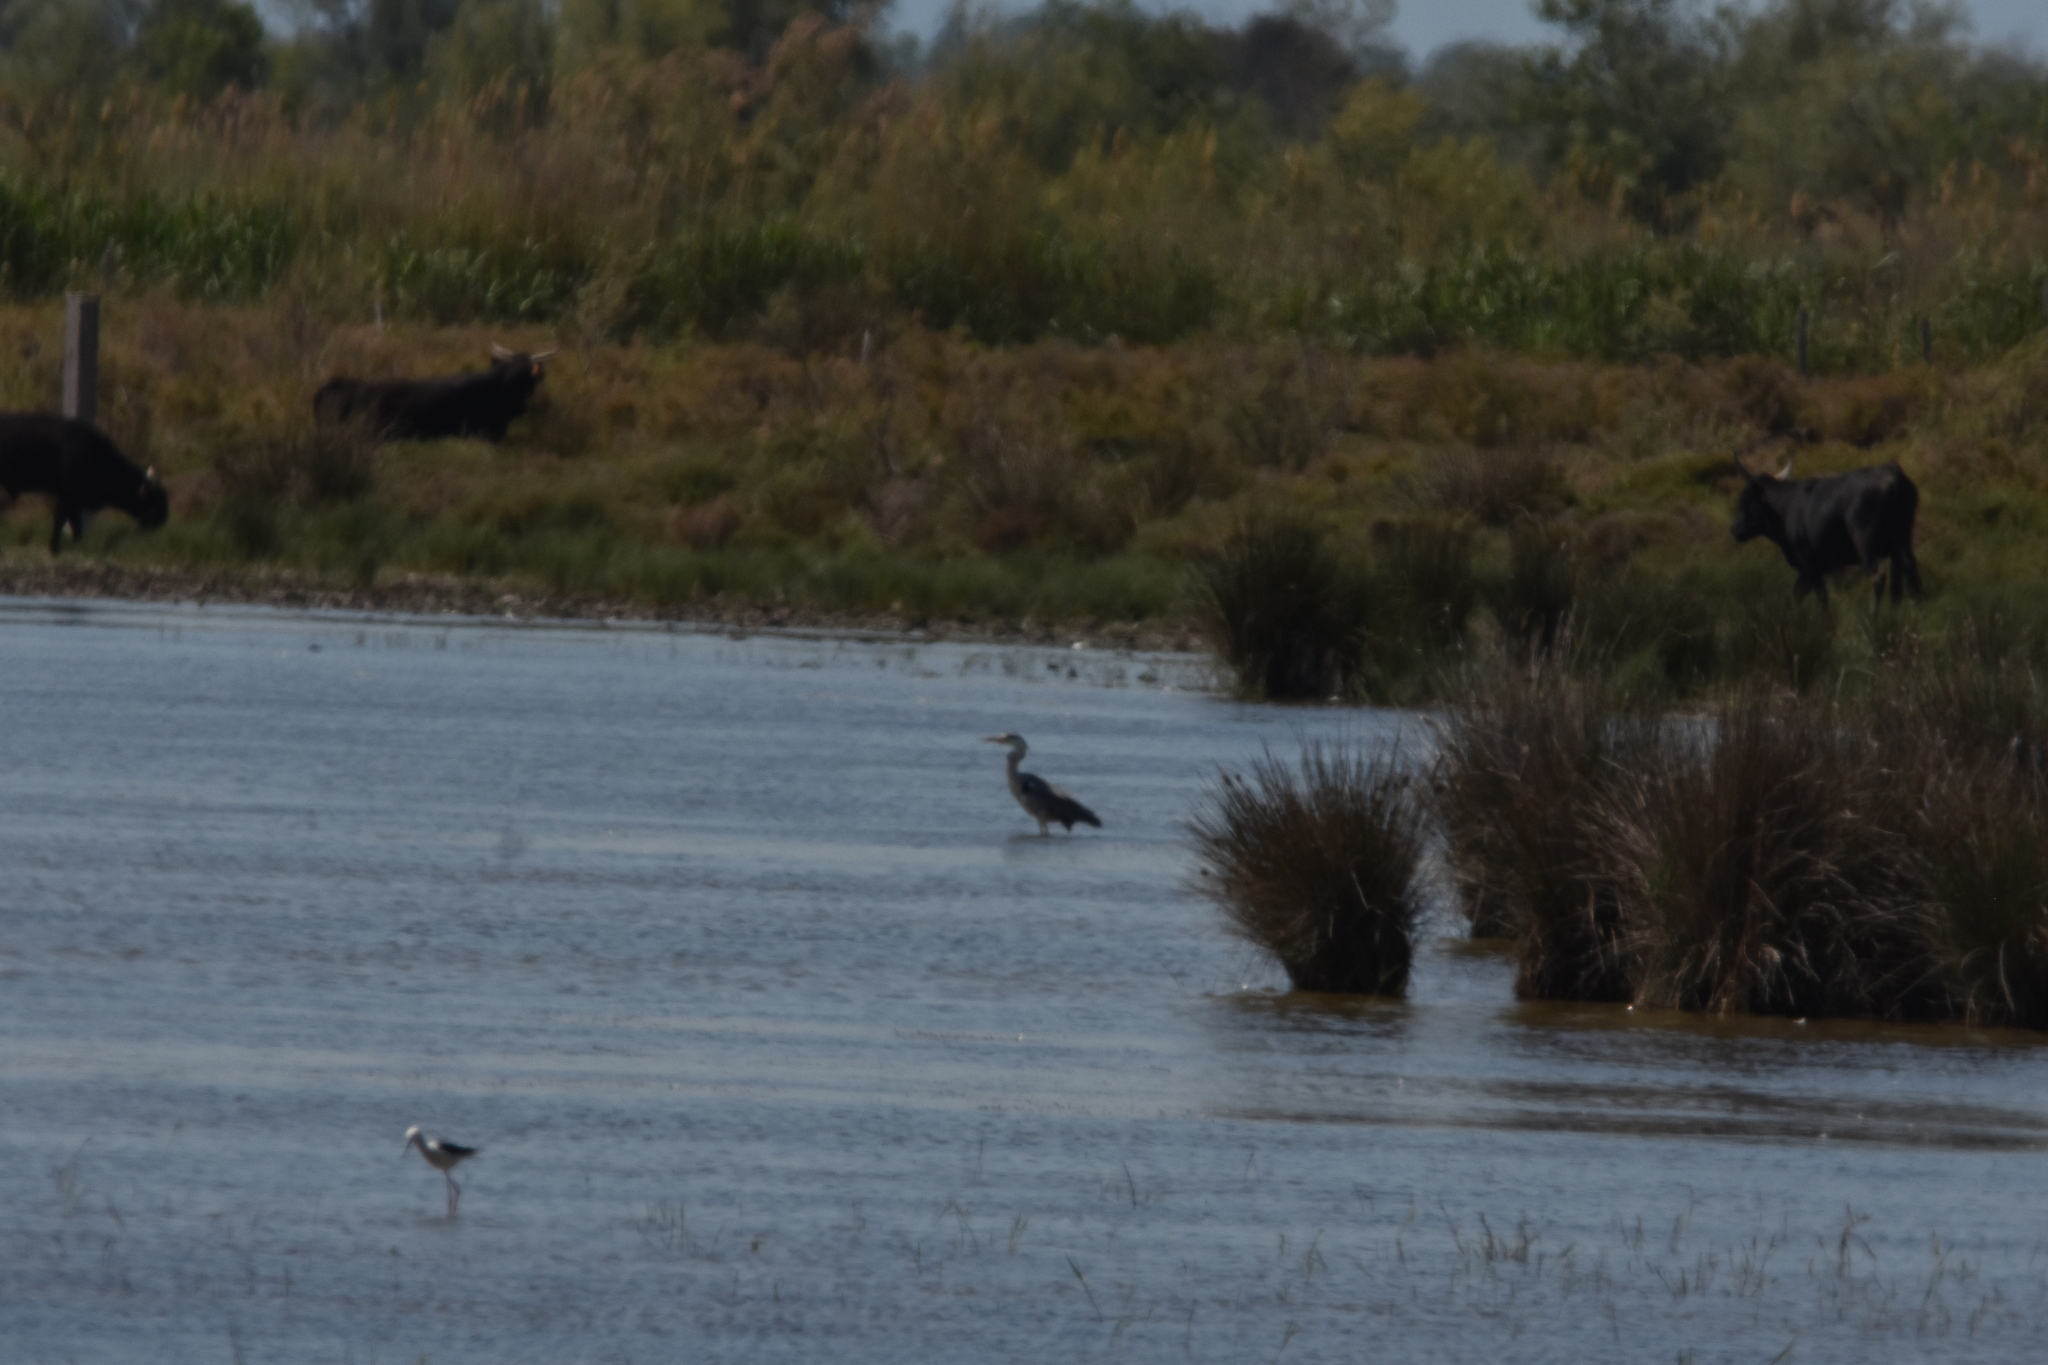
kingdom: Animalia
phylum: Chordata
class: Aves
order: Pelecaniformes
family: Ardeidae
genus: Ardea
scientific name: Ardea cinerea
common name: Grey heron
